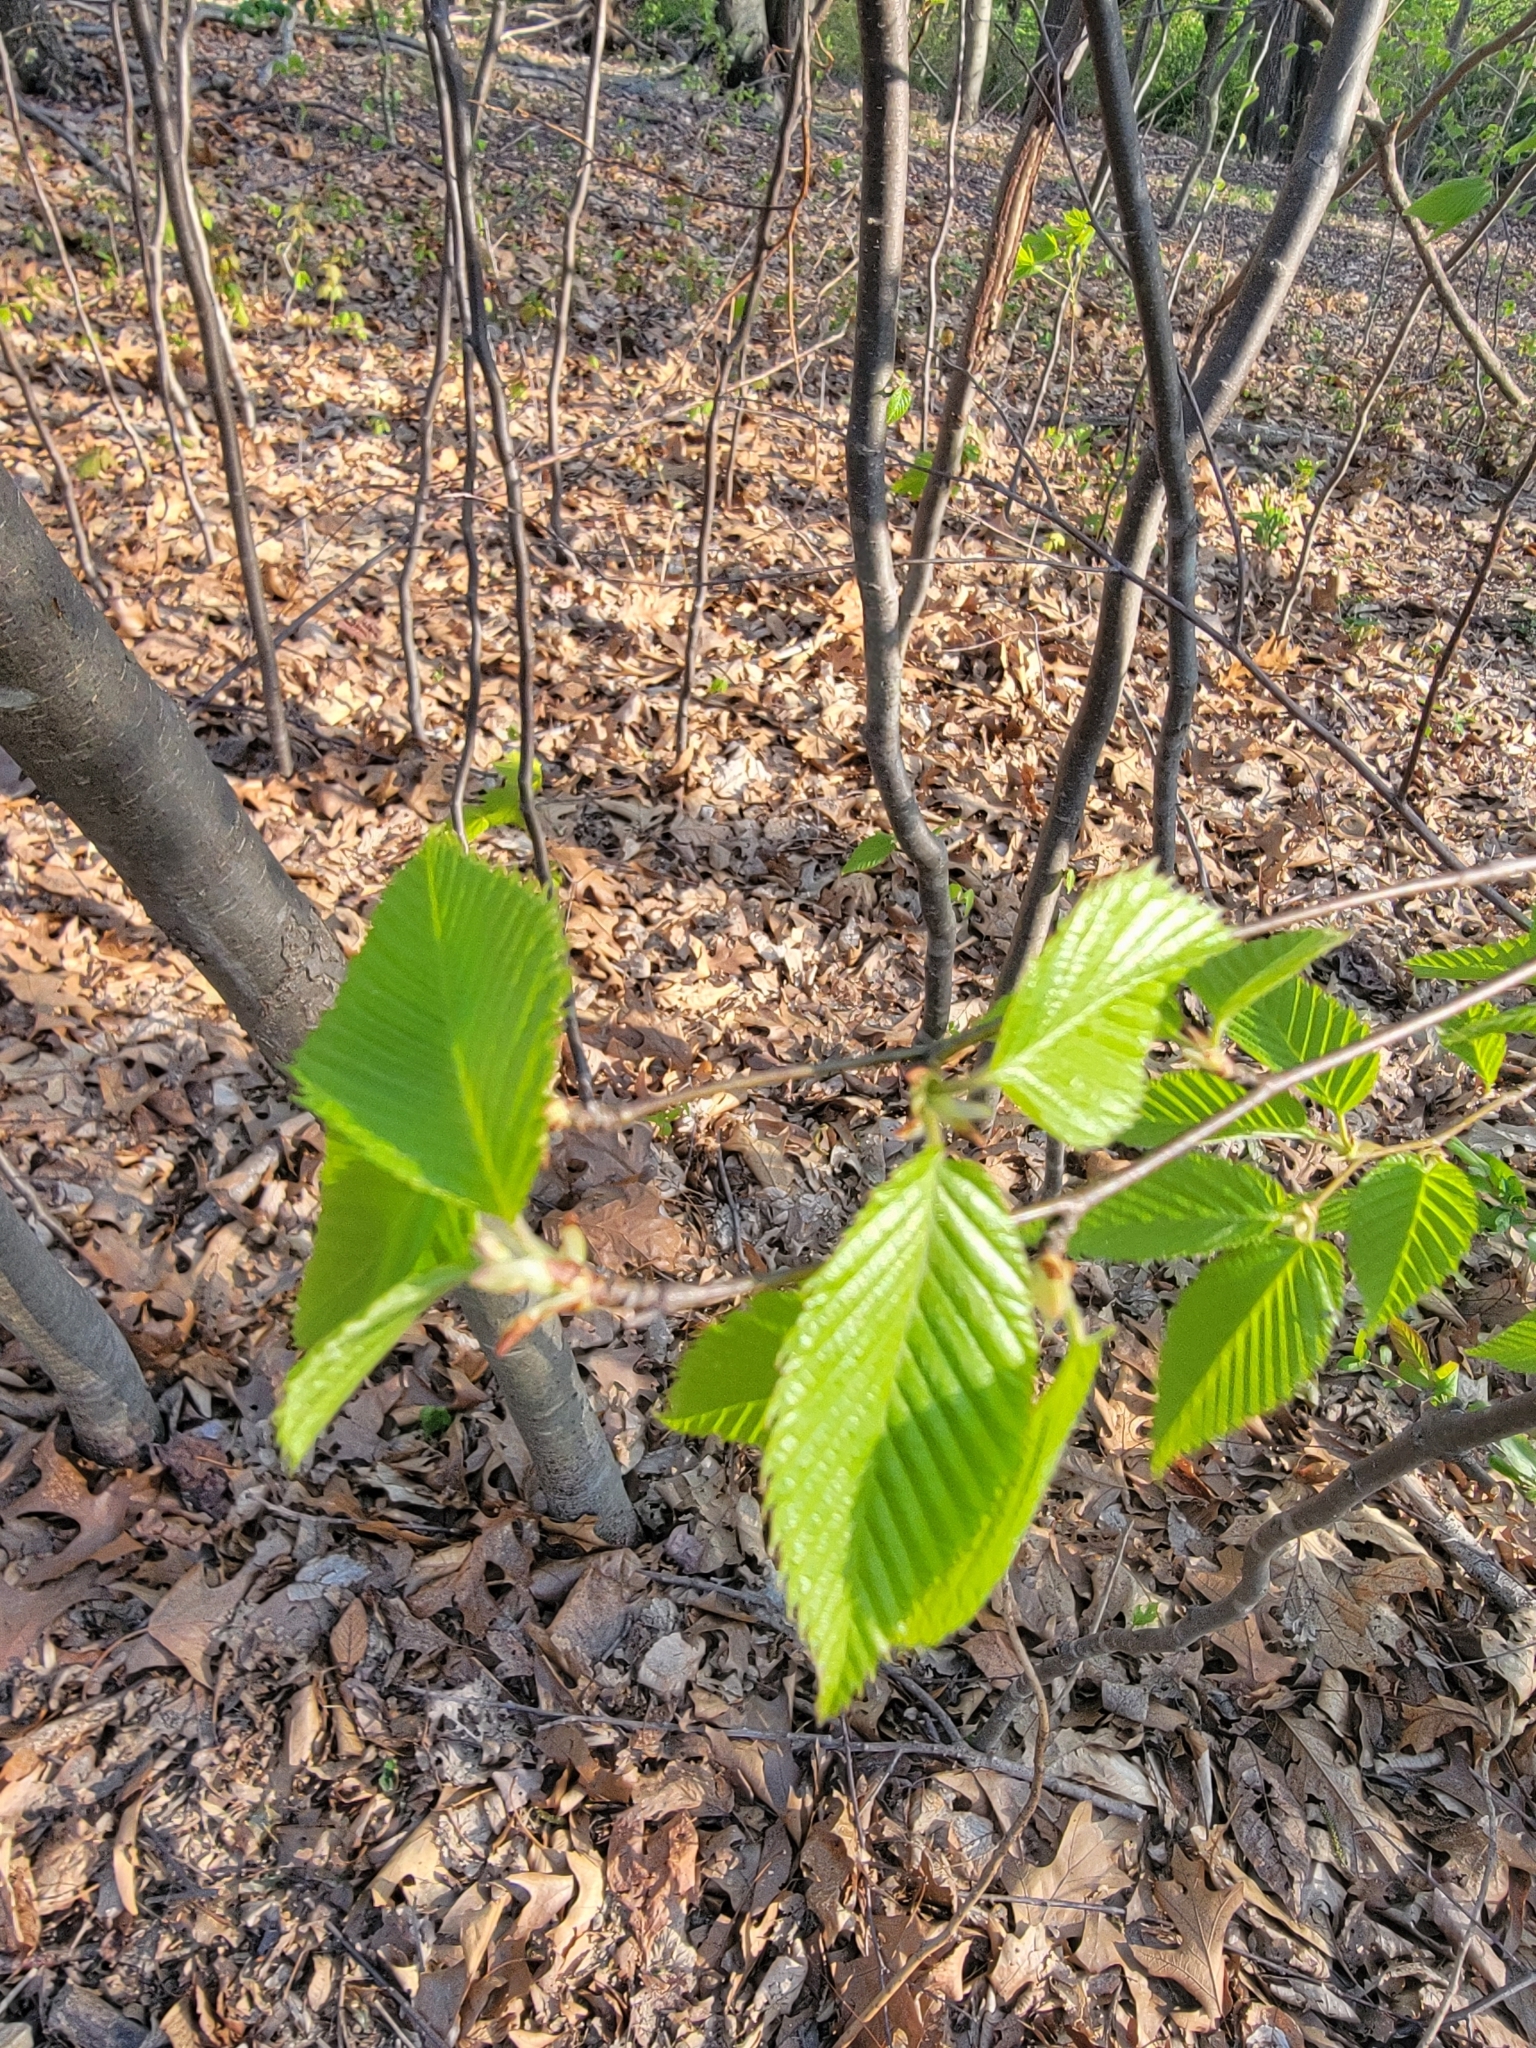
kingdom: Plantae
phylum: Tracheophyta
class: Magnoliopsida
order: Fagales
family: Fagaceae
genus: Fagus
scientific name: Fagus grandifolia
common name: American beech
